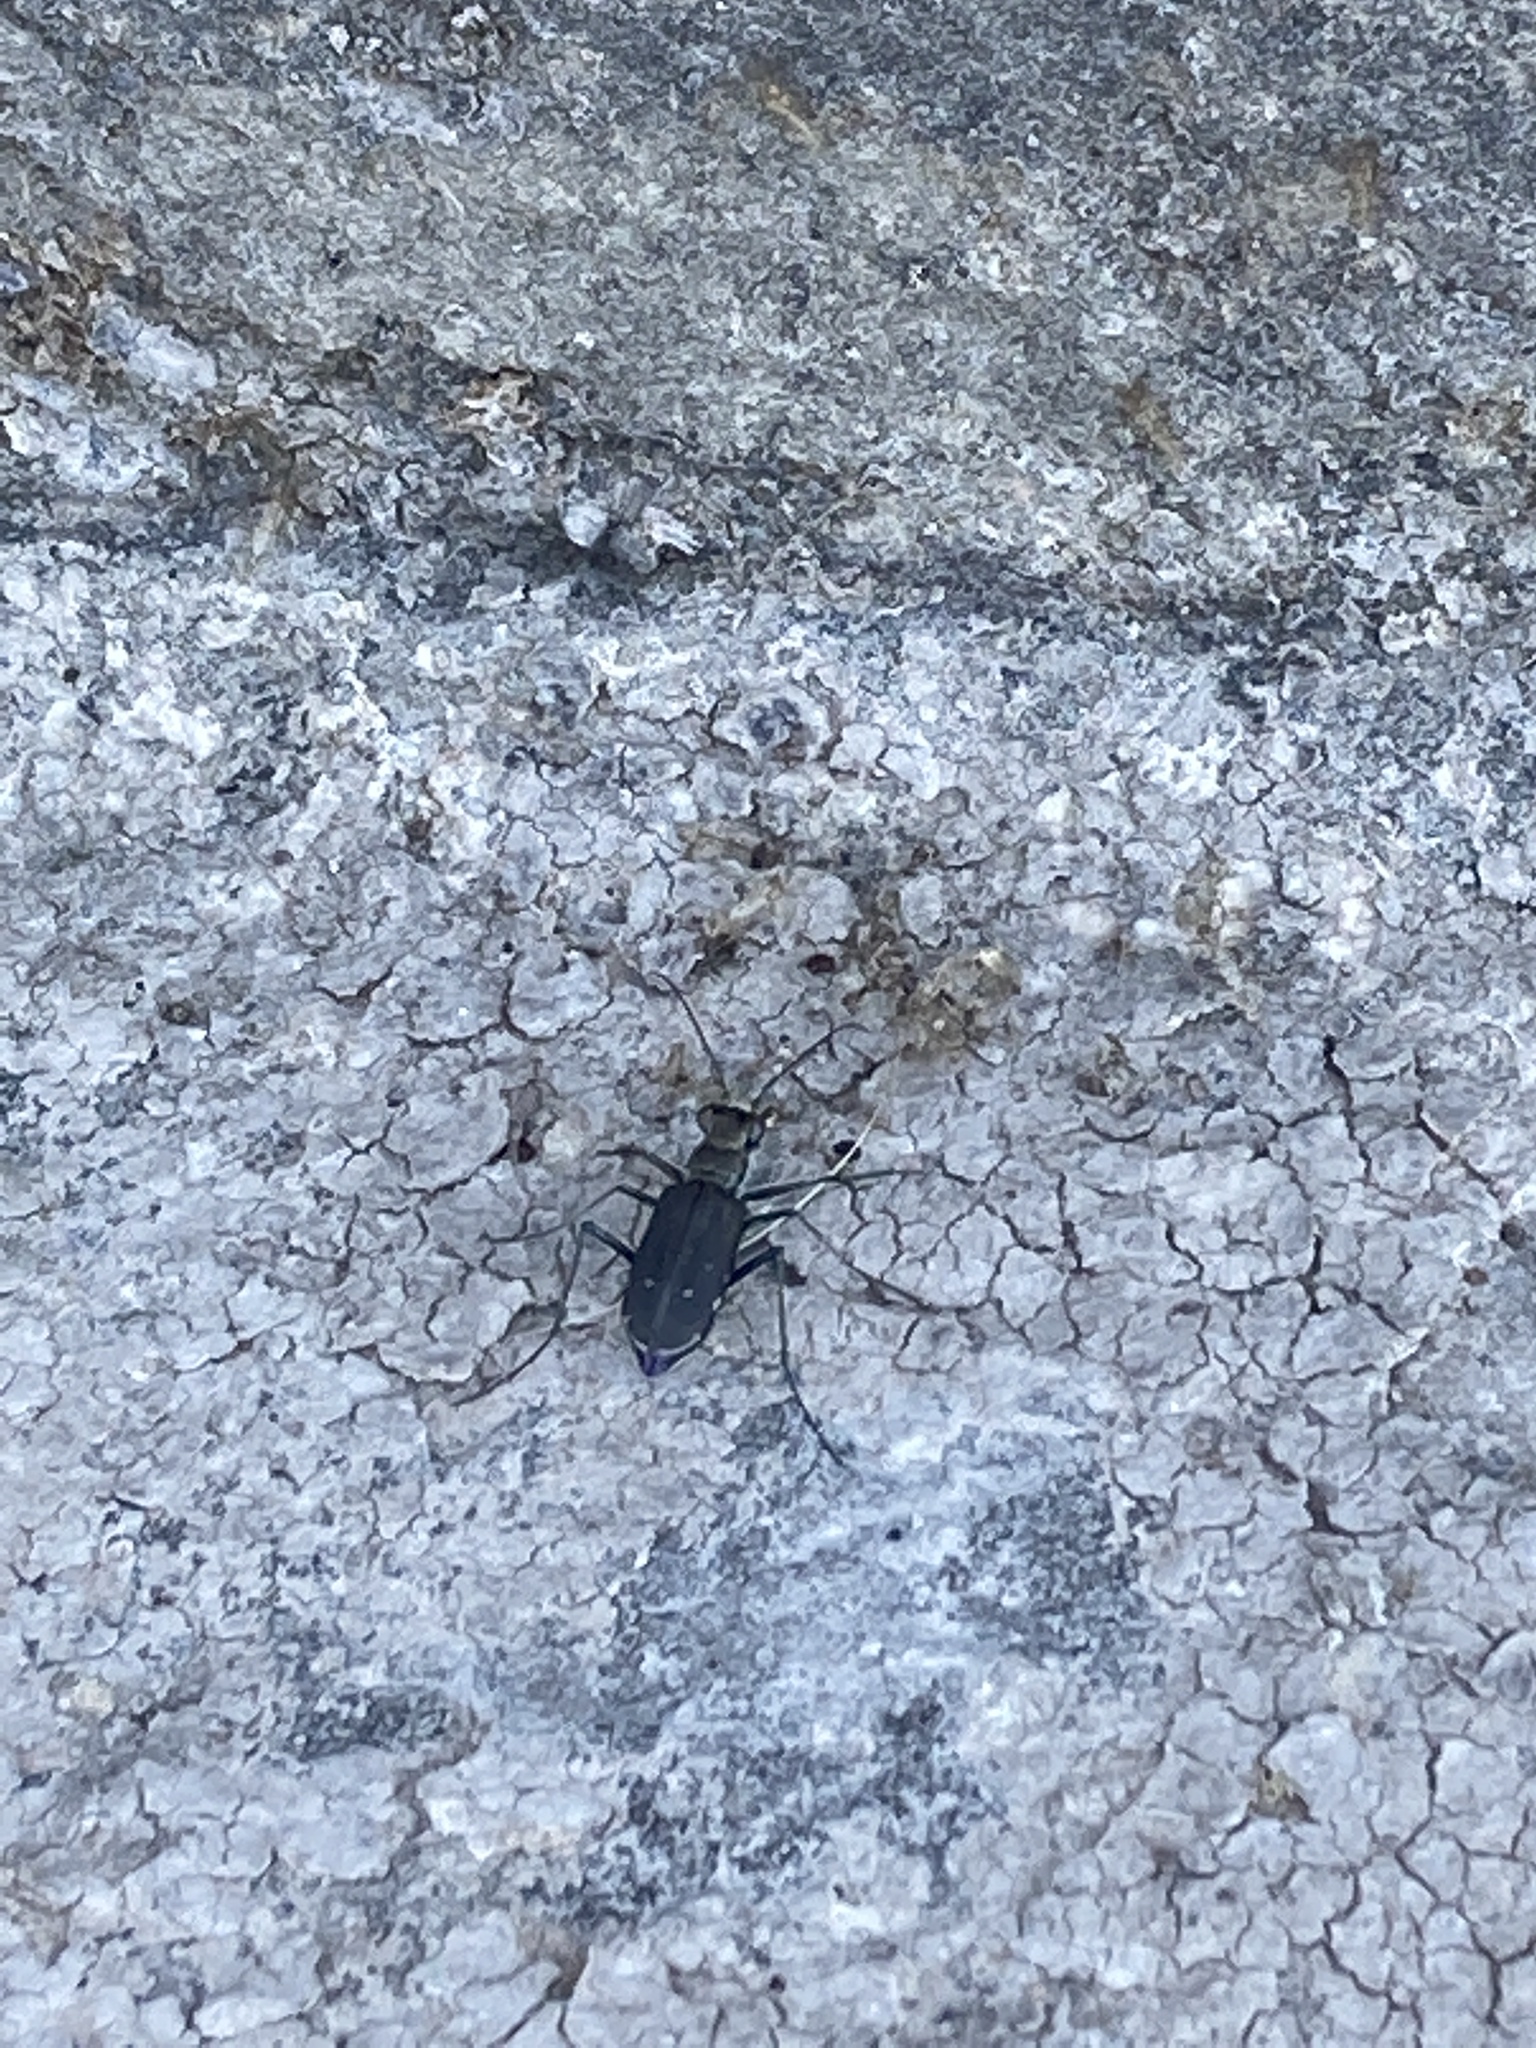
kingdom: Animalia
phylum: Arthropoda
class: Insecta
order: Coleoptera
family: Carabidae
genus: Cicindela
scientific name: Cicindela punctulata
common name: Punctured tiger beetle
